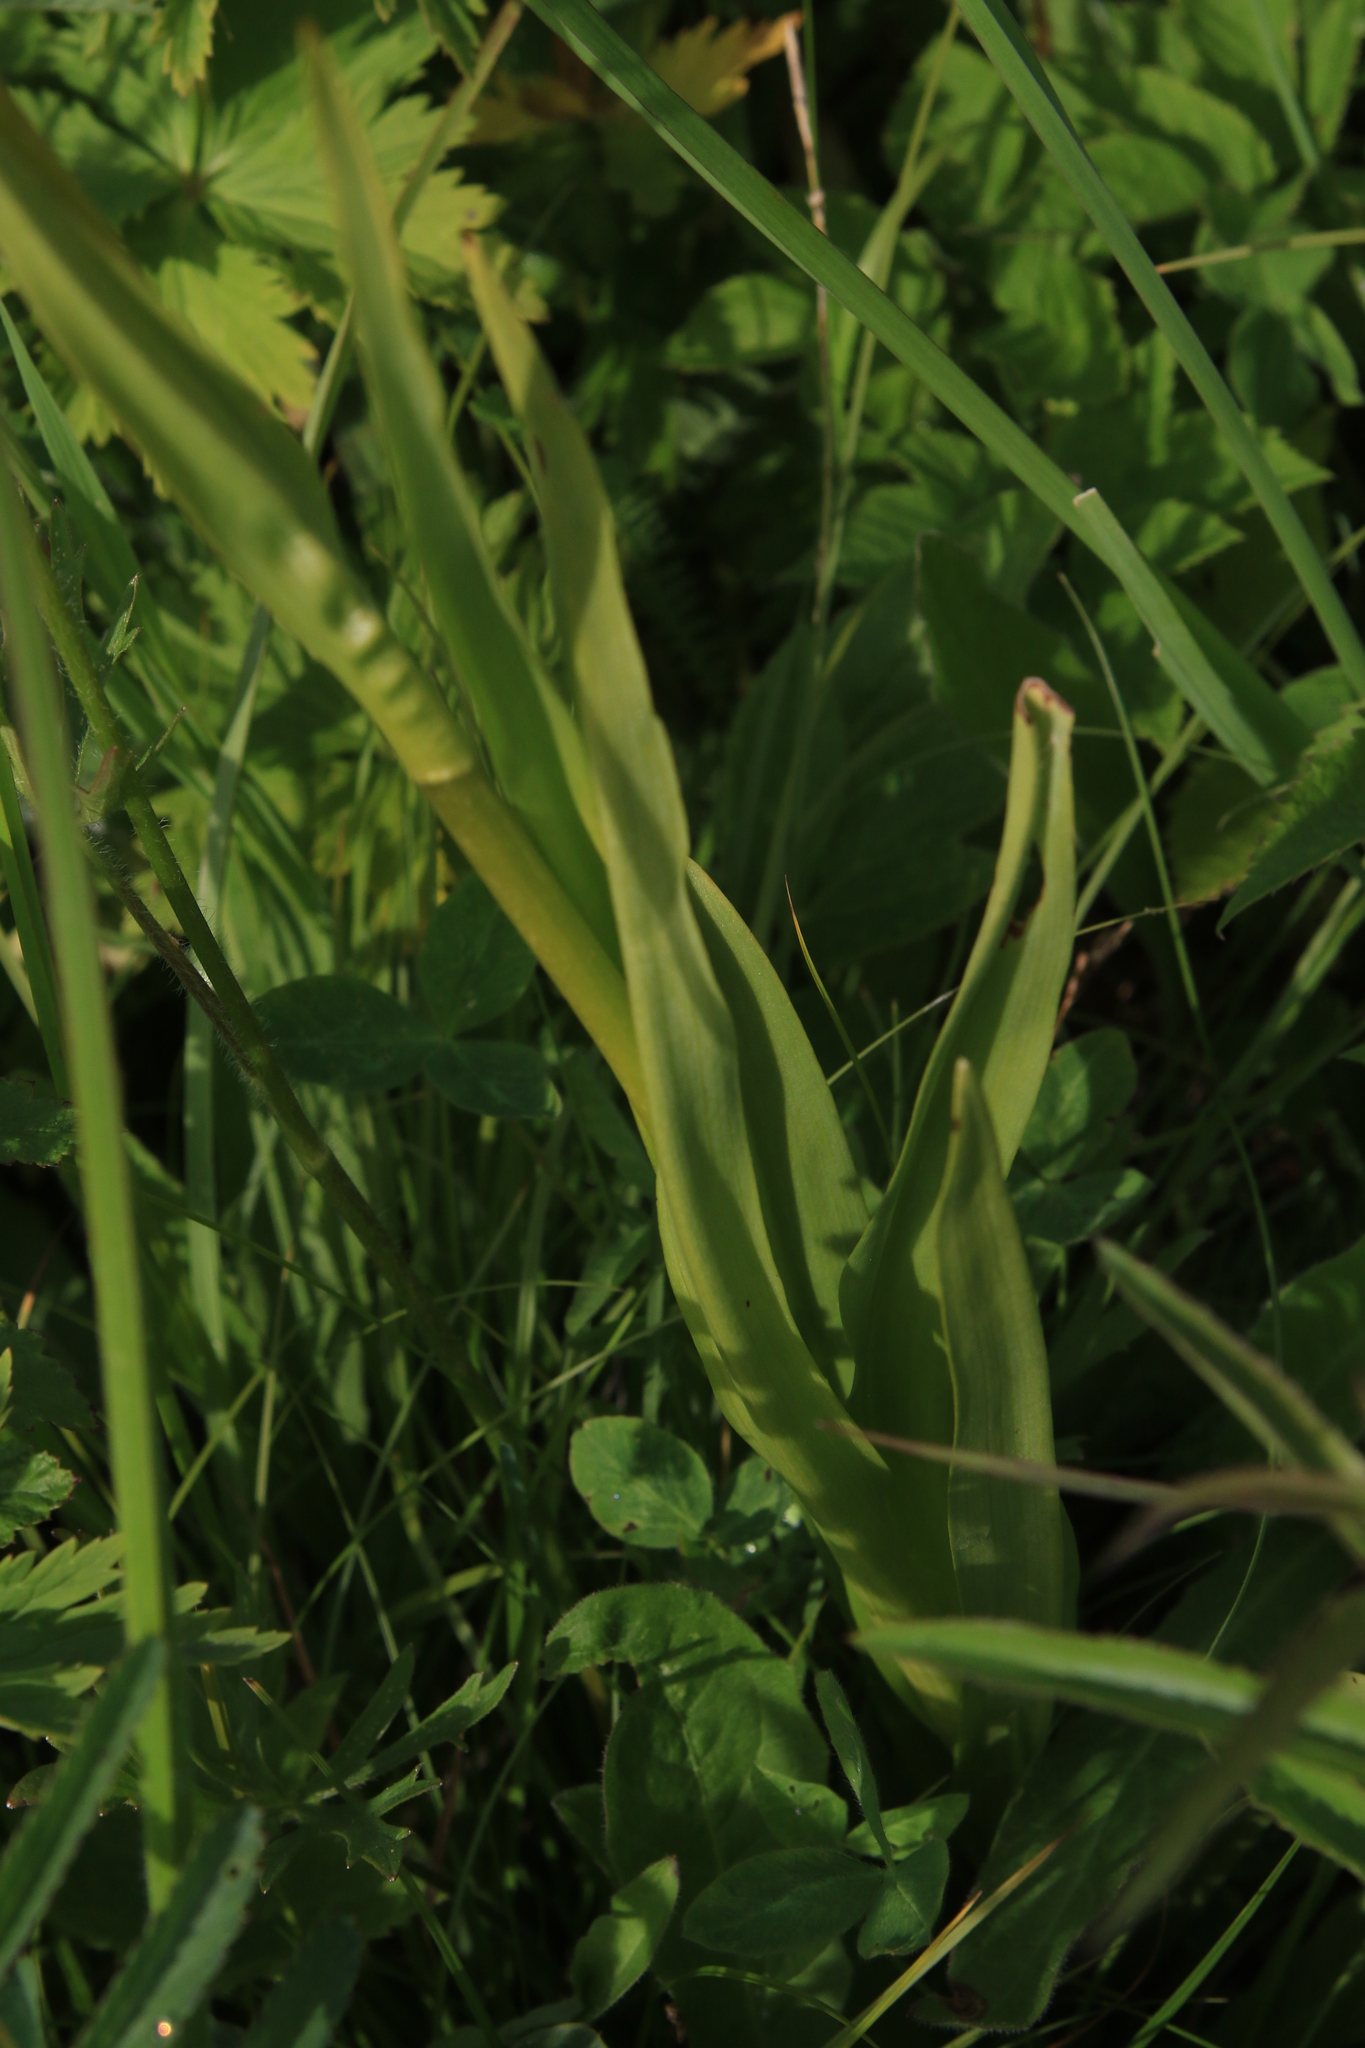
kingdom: Plantae
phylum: Tracheophyta
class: Liliopsida
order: Asparagales
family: Orchidaceae
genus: Gymnadenia
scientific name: Gymnadenia conopsea
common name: Fragrant orchid
